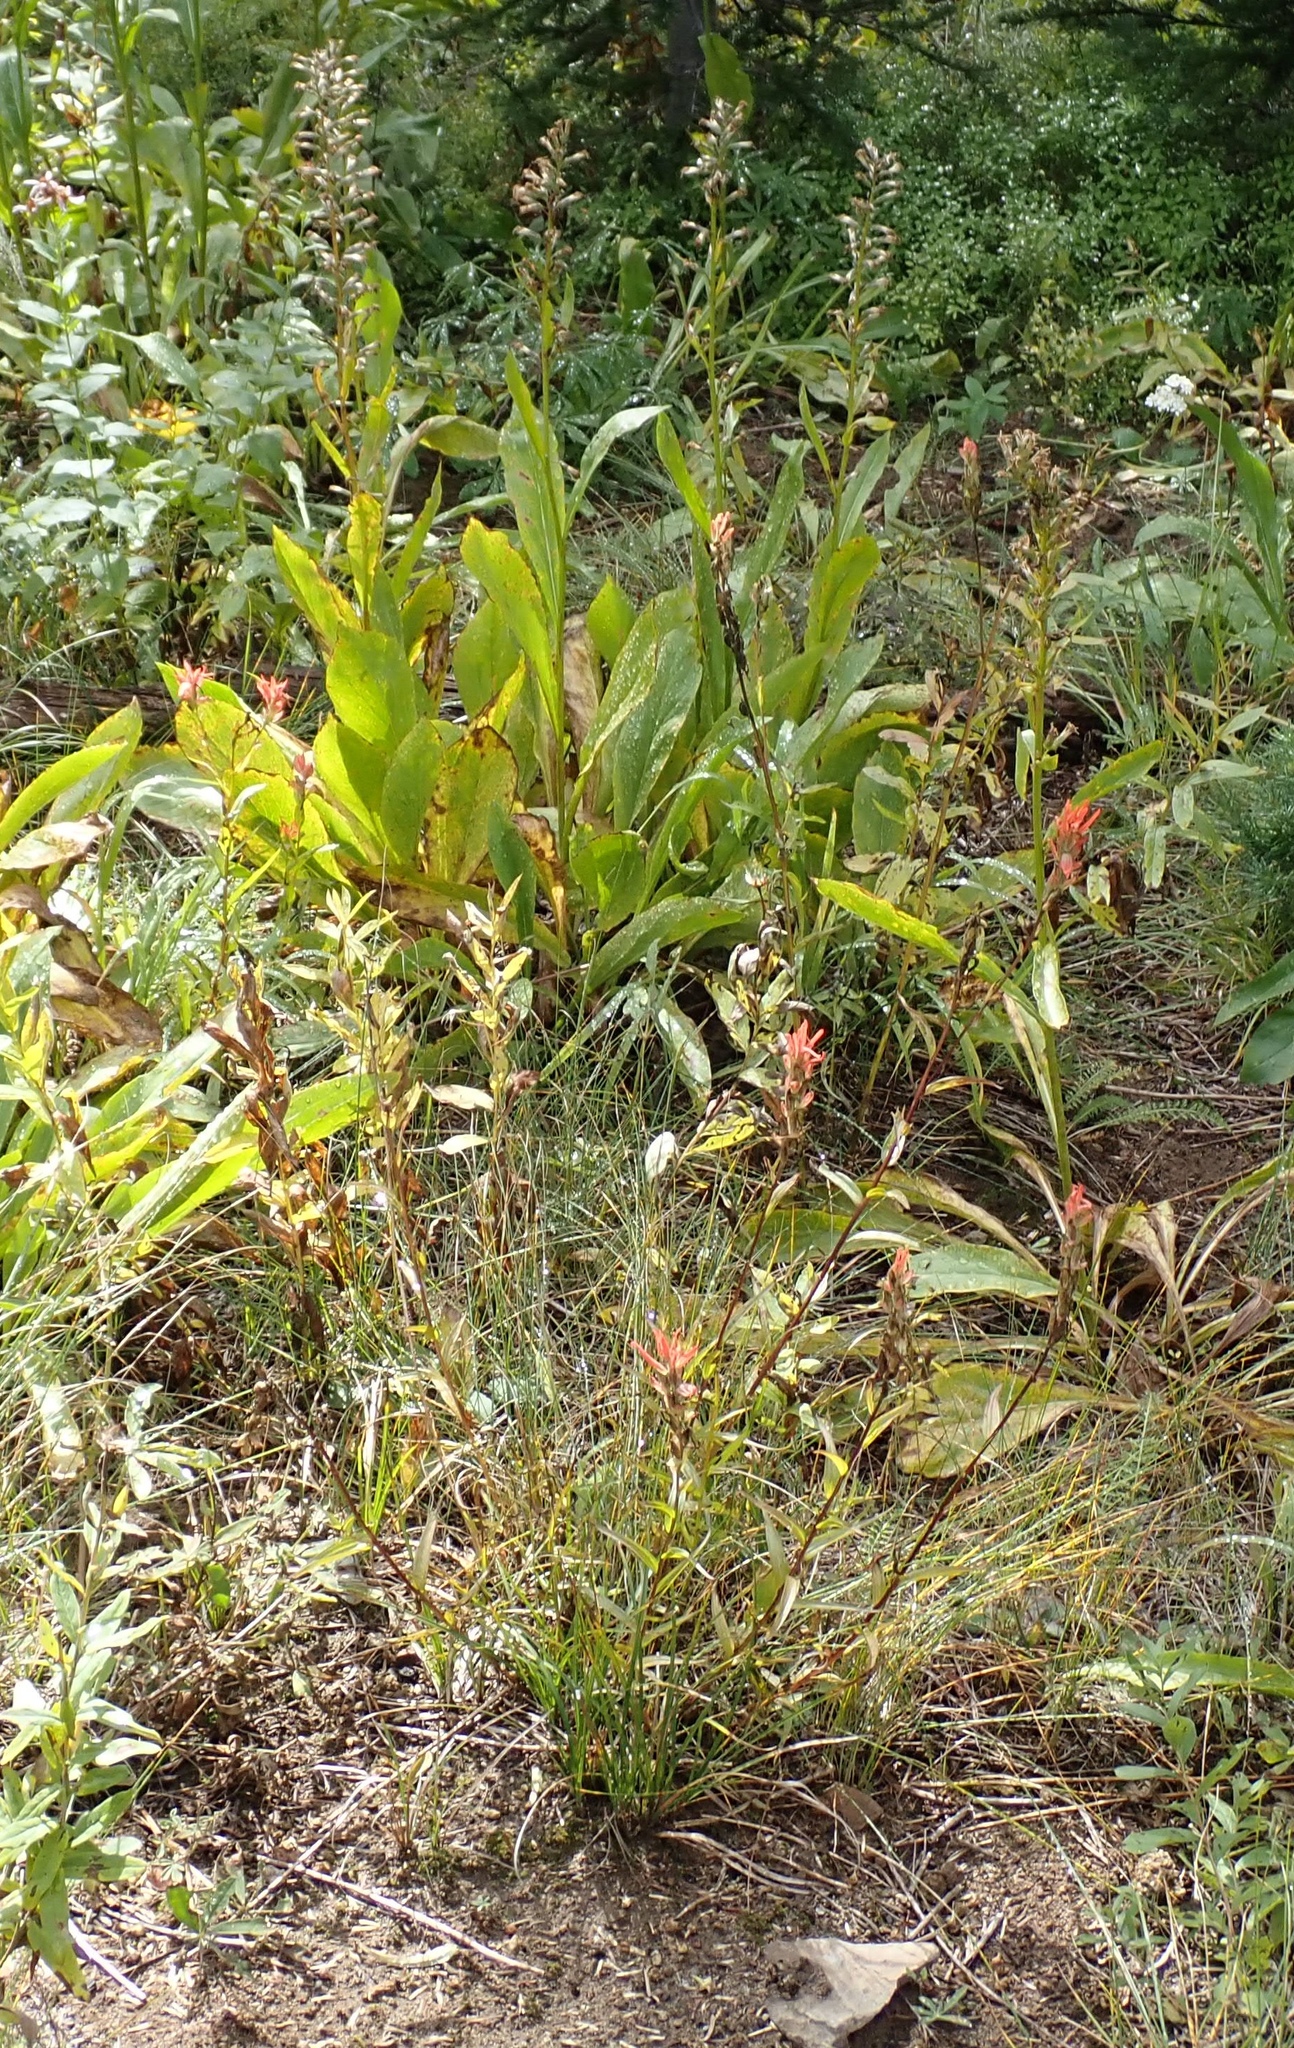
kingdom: Plantae
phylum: Tracheophyta
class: Magnoliopsida
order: Asterales
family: Asteraceae
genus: Rainiera
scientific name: Rainiera stricta
